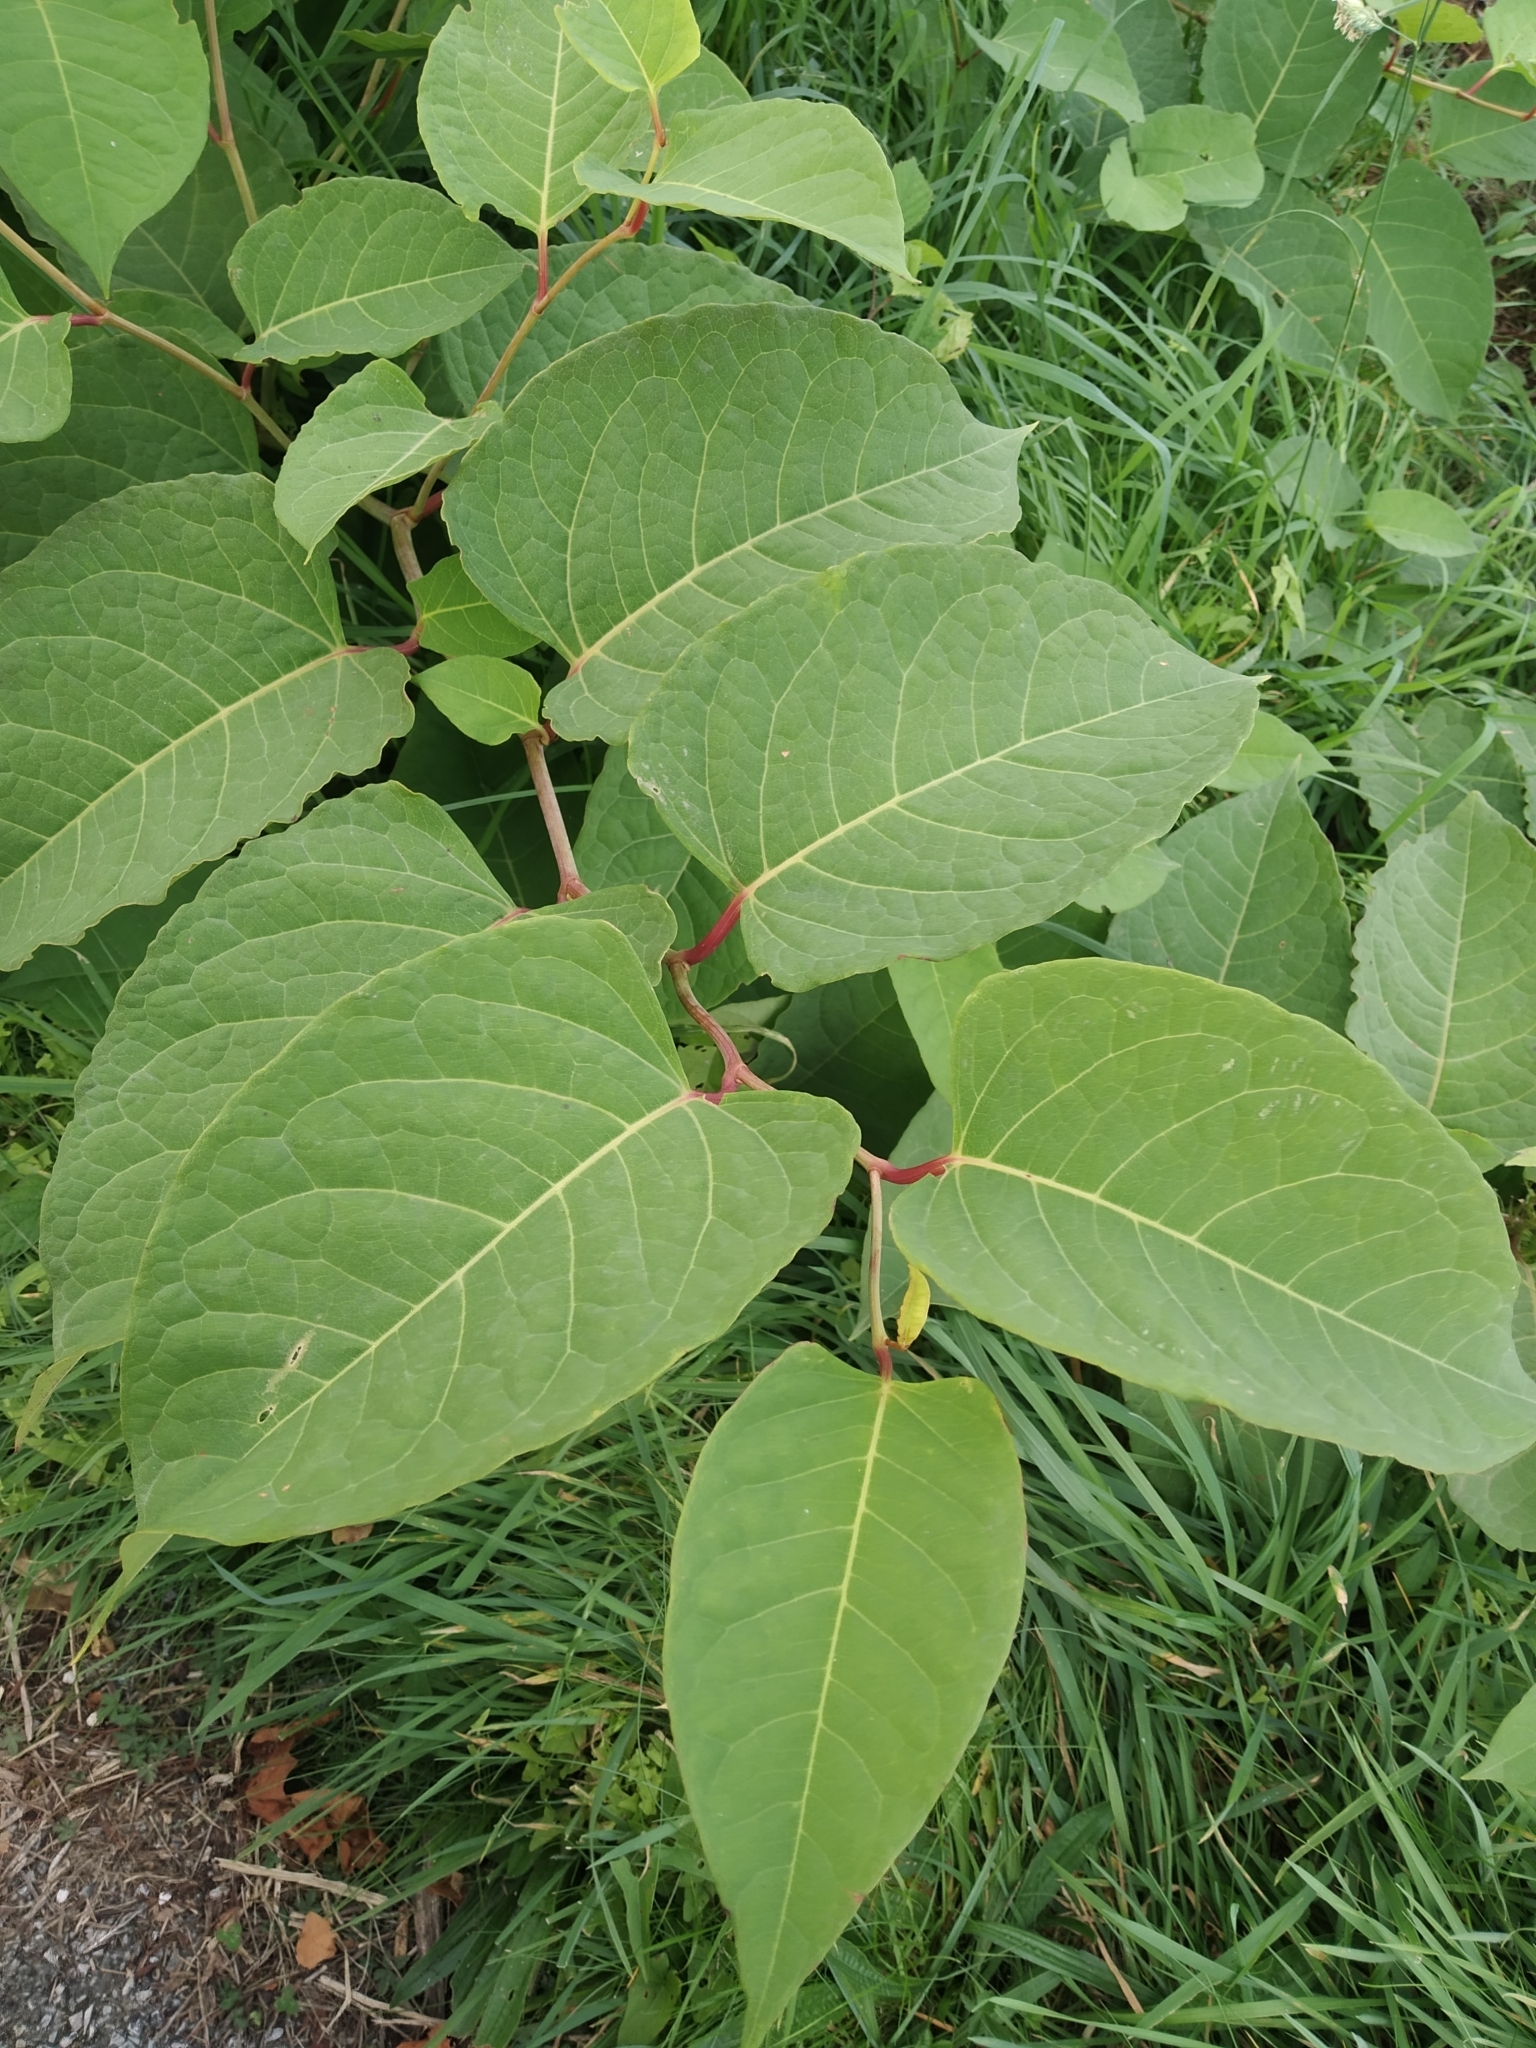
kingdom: Plantae
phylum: Tracheophyta
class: Magnoliopsida
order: Caryophyllales
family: Polygonaceae
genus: Reynoutria
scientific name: Reynoutria japonica
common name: Japanese knotweed
